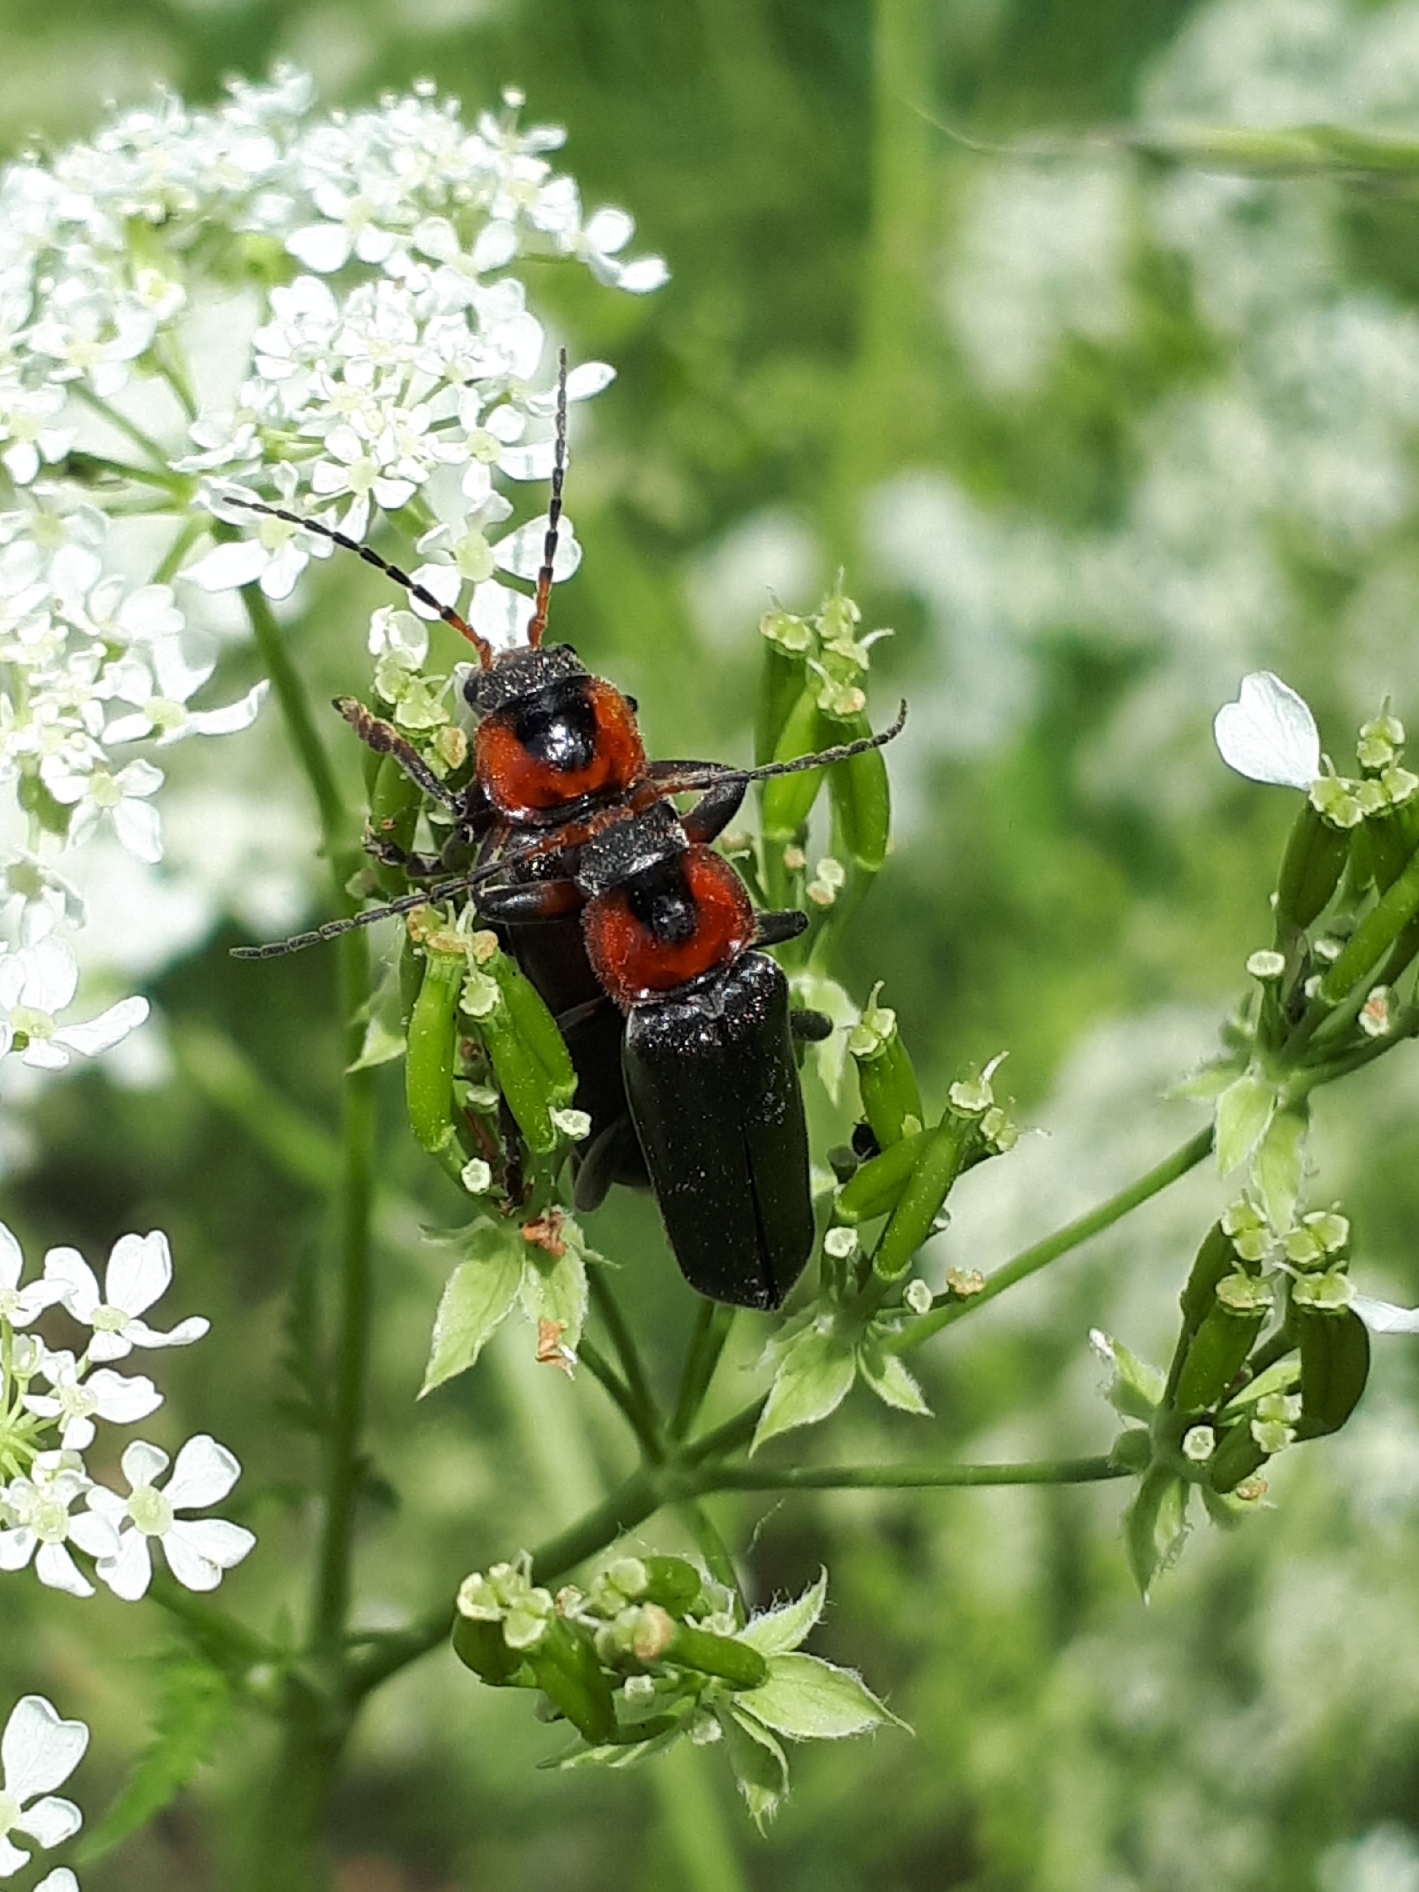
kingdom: Animalia
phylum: Arthropoda
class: Insecta
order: Coleoptera
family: Cantharidae
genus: Cantharis
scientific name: Cantharis fusca
